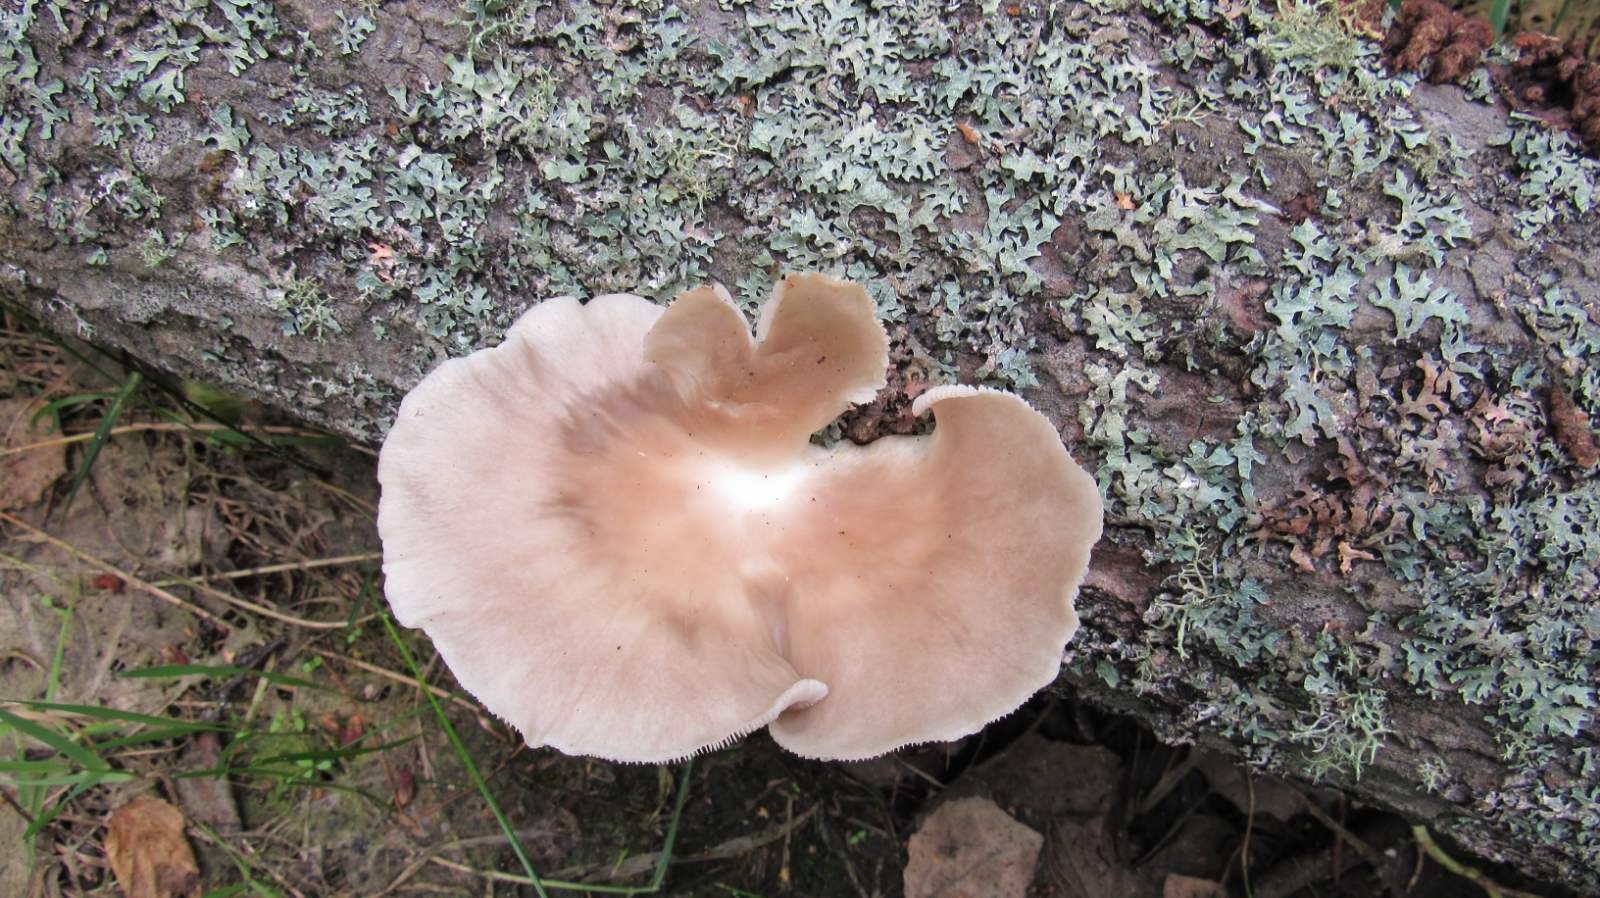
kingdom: Fungi
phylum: Basidiomycota
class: Agaricomycetes
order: Agaricales
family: Pleurotaceae
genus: Pleurotus
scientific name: Pleurotus pulmonarius
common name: Pale oyster
